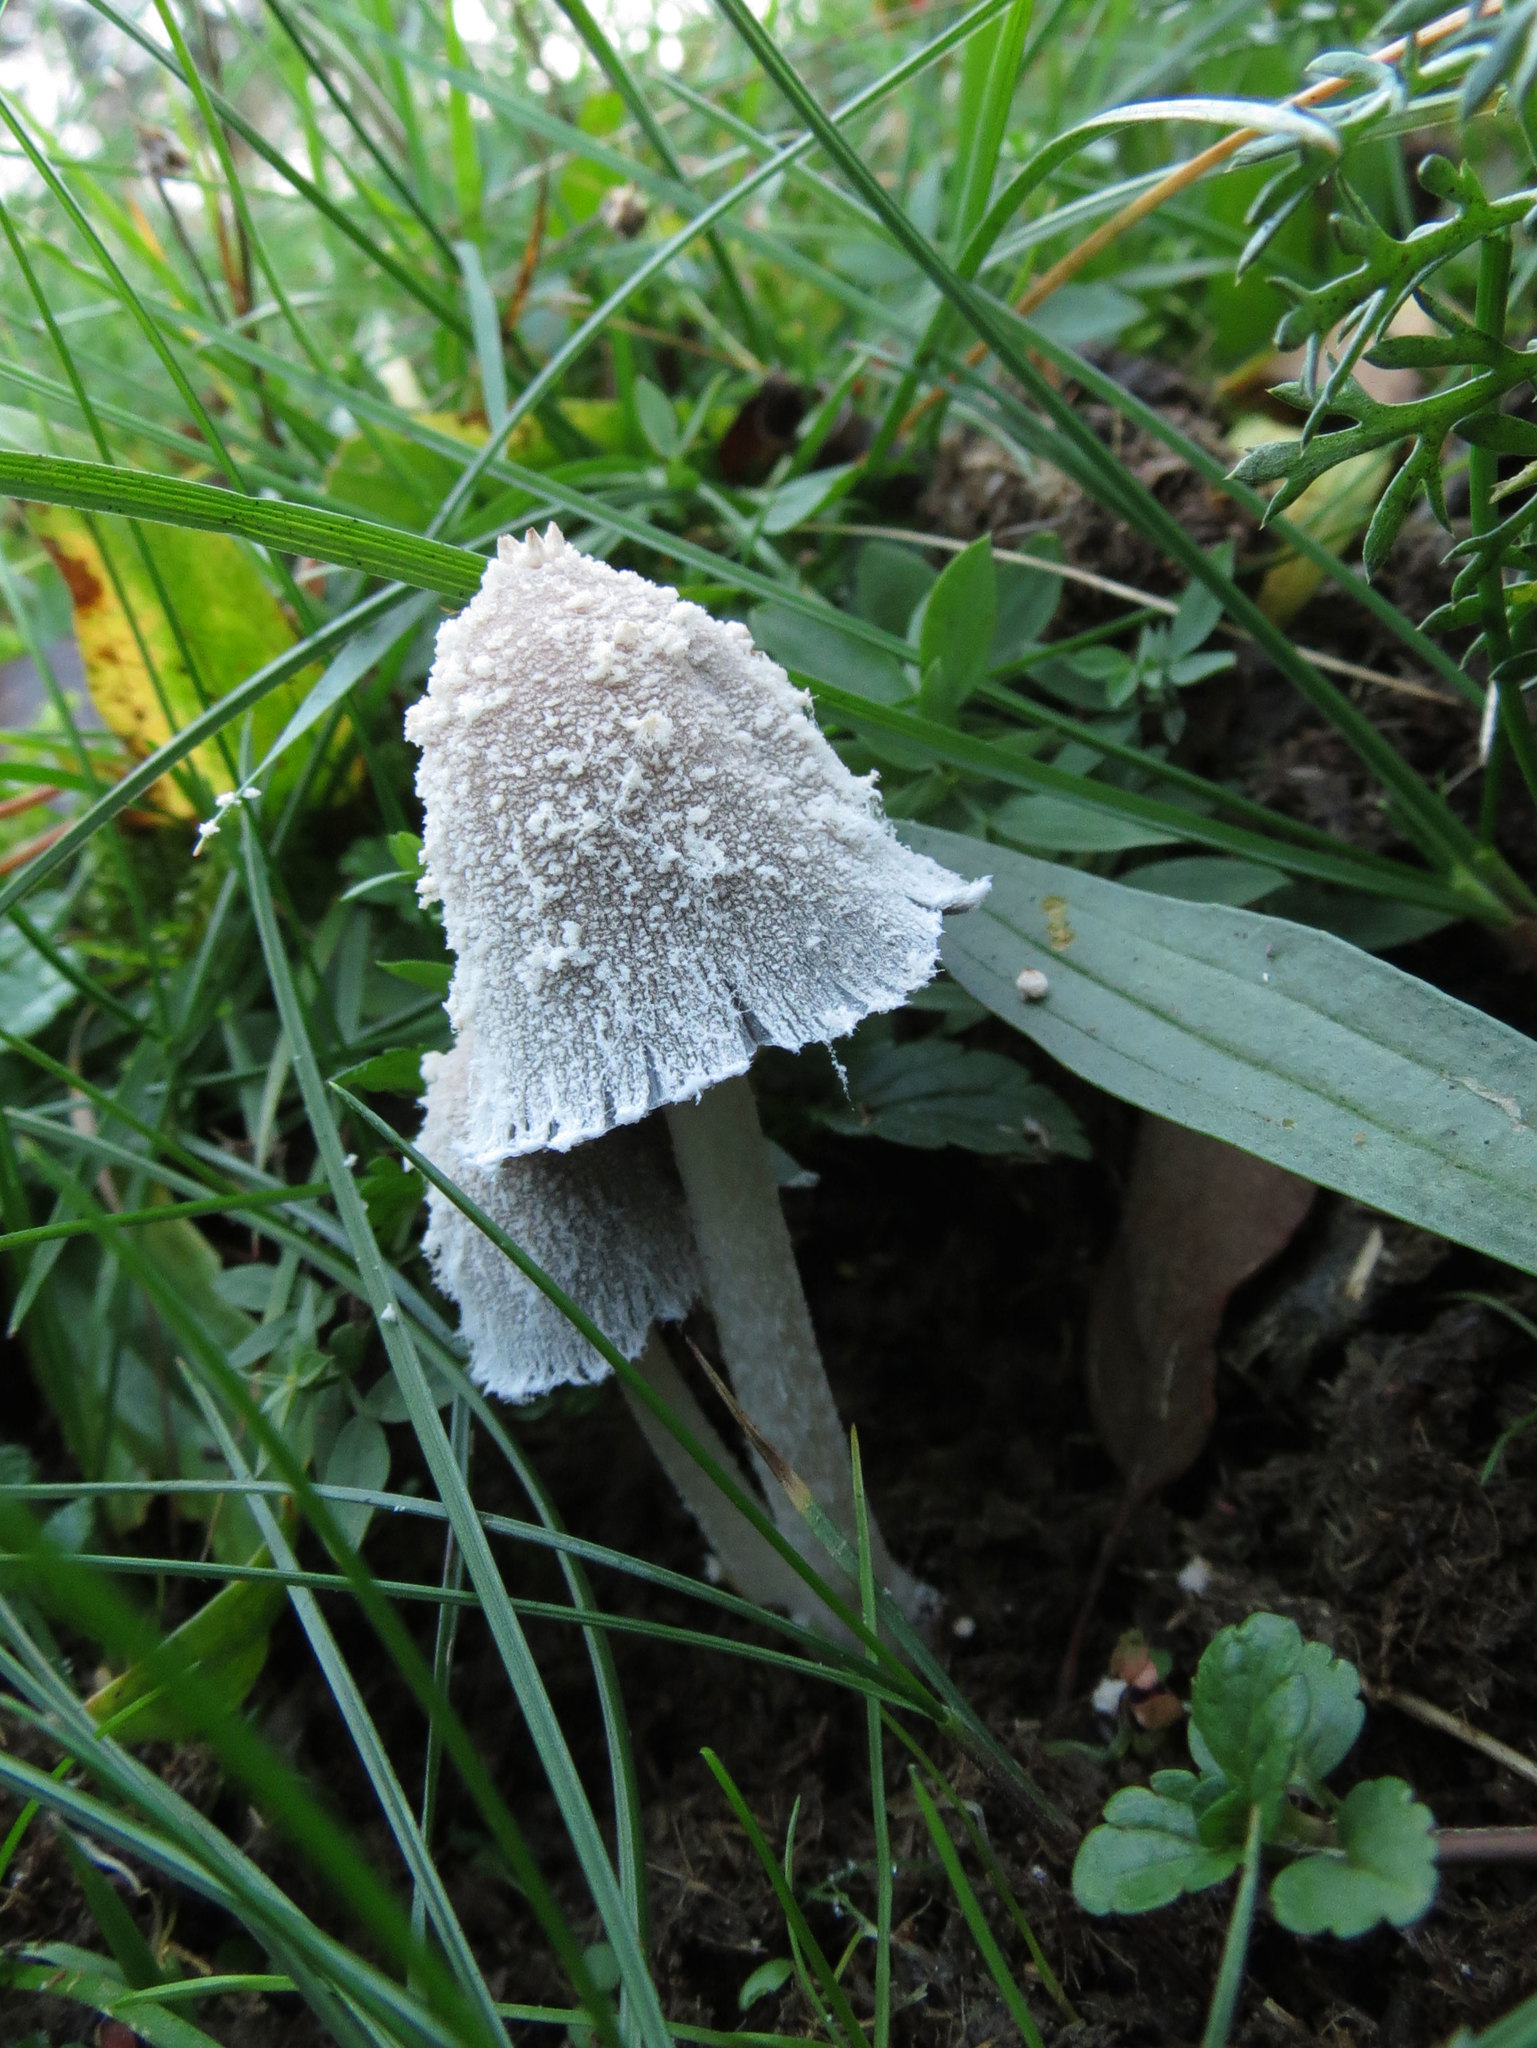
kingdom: Fungi
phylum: Basidiomycota
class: Agaricomycetes
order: Agaricales
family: Psathyrellaceae
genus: Coprinopsis
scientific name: Coprinopsis nivea
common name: Snowy inkcap
